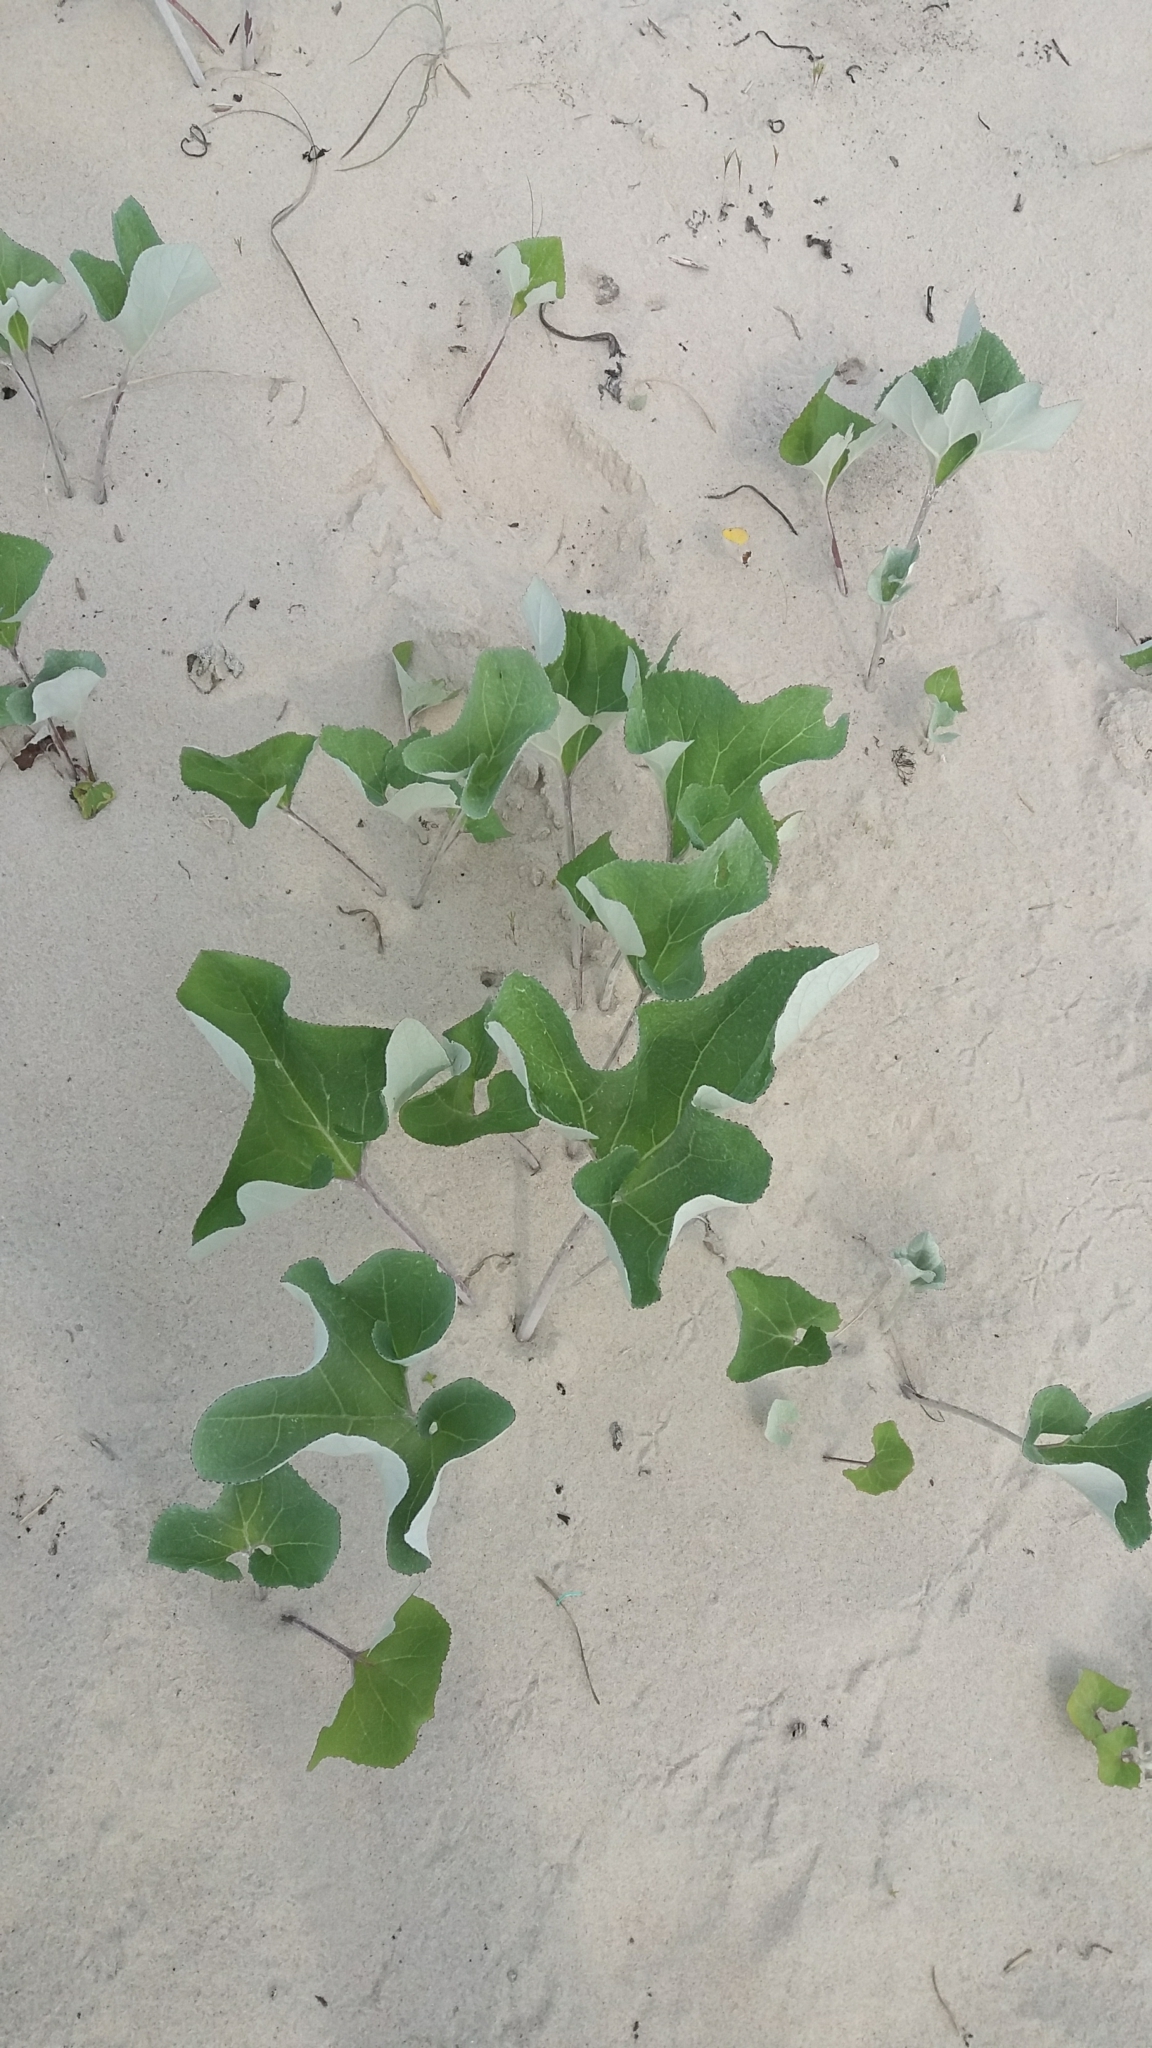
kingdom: Plantae
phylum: Tracheophyta
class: Magnoliopsida
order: Asterales
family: Asteraceae
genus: Petasites
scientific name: Petasites spurius
